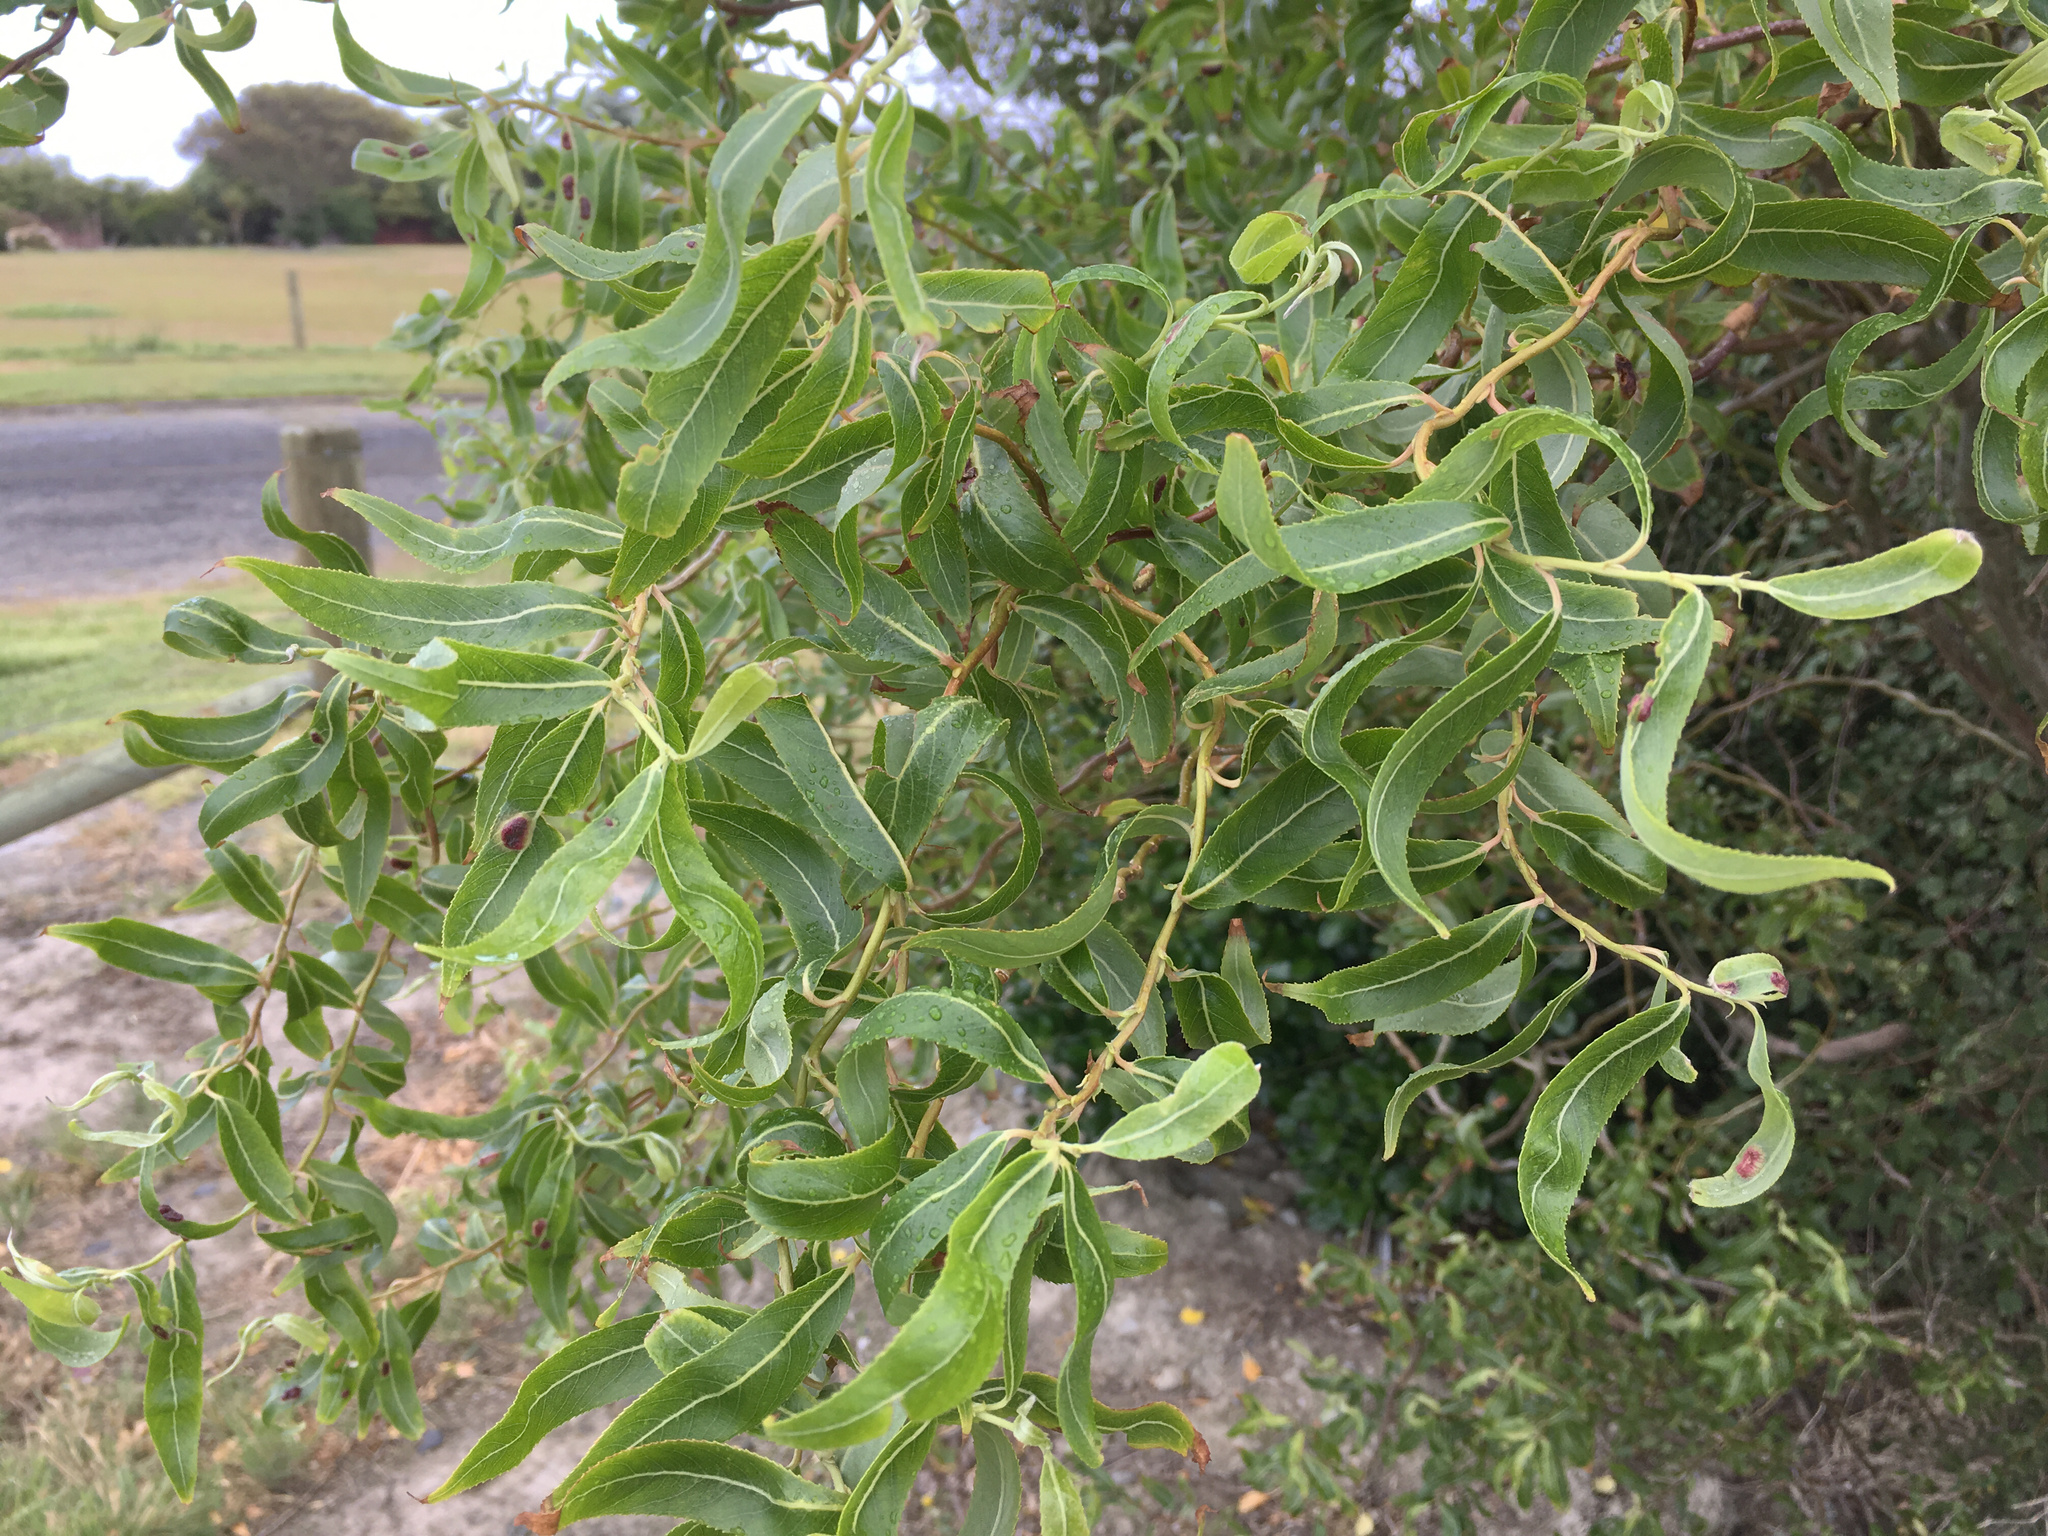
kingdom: Plantae
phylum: Tracheophyta
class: Magnoliopsida
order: Malpighiales
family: Salicaceae
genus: Salix
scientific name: Salix babylonica
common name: Weeping willow
